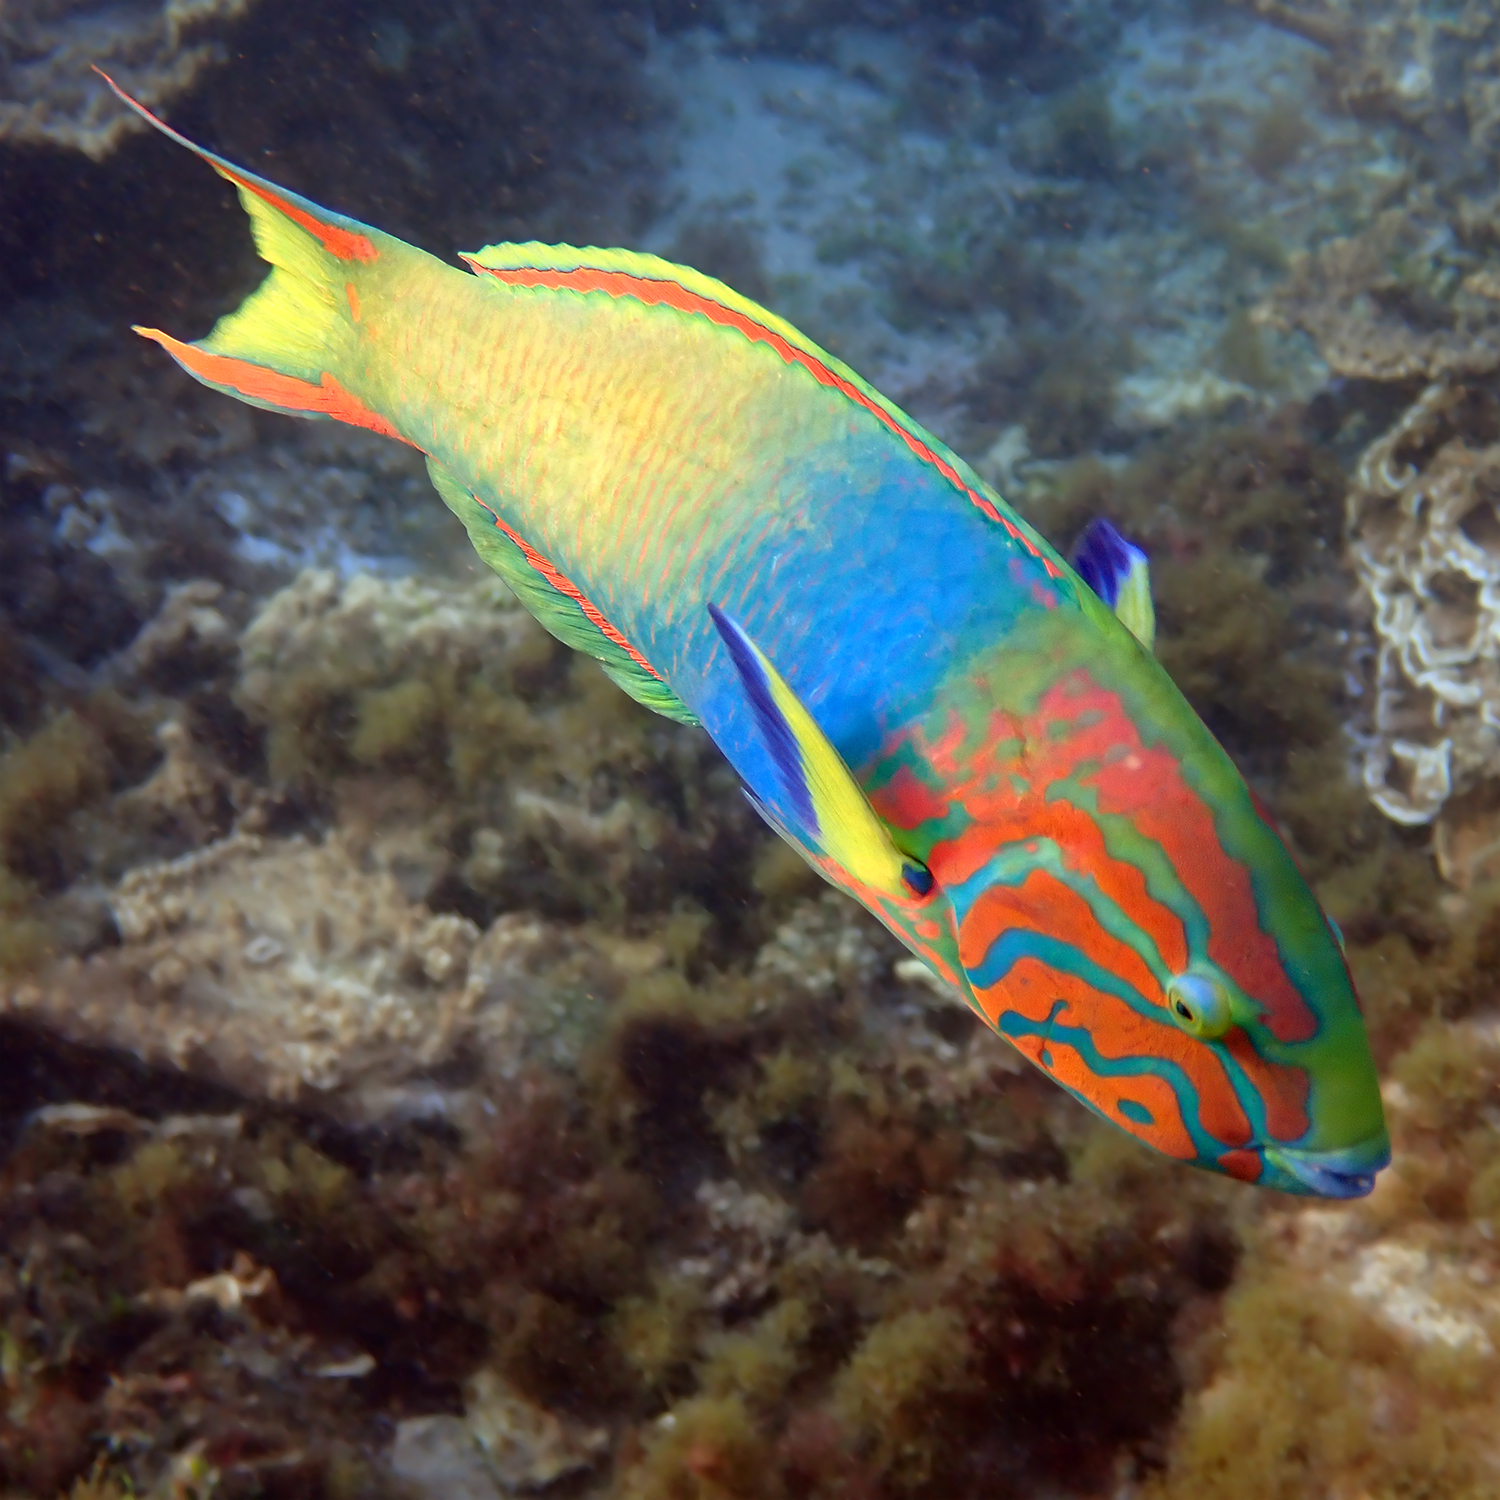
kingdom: Animalia
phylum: Chordata
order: Perciformes
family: Labridae
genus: Thalassoma
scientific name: Thalassoma lutescens
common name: Green moon wrasse
